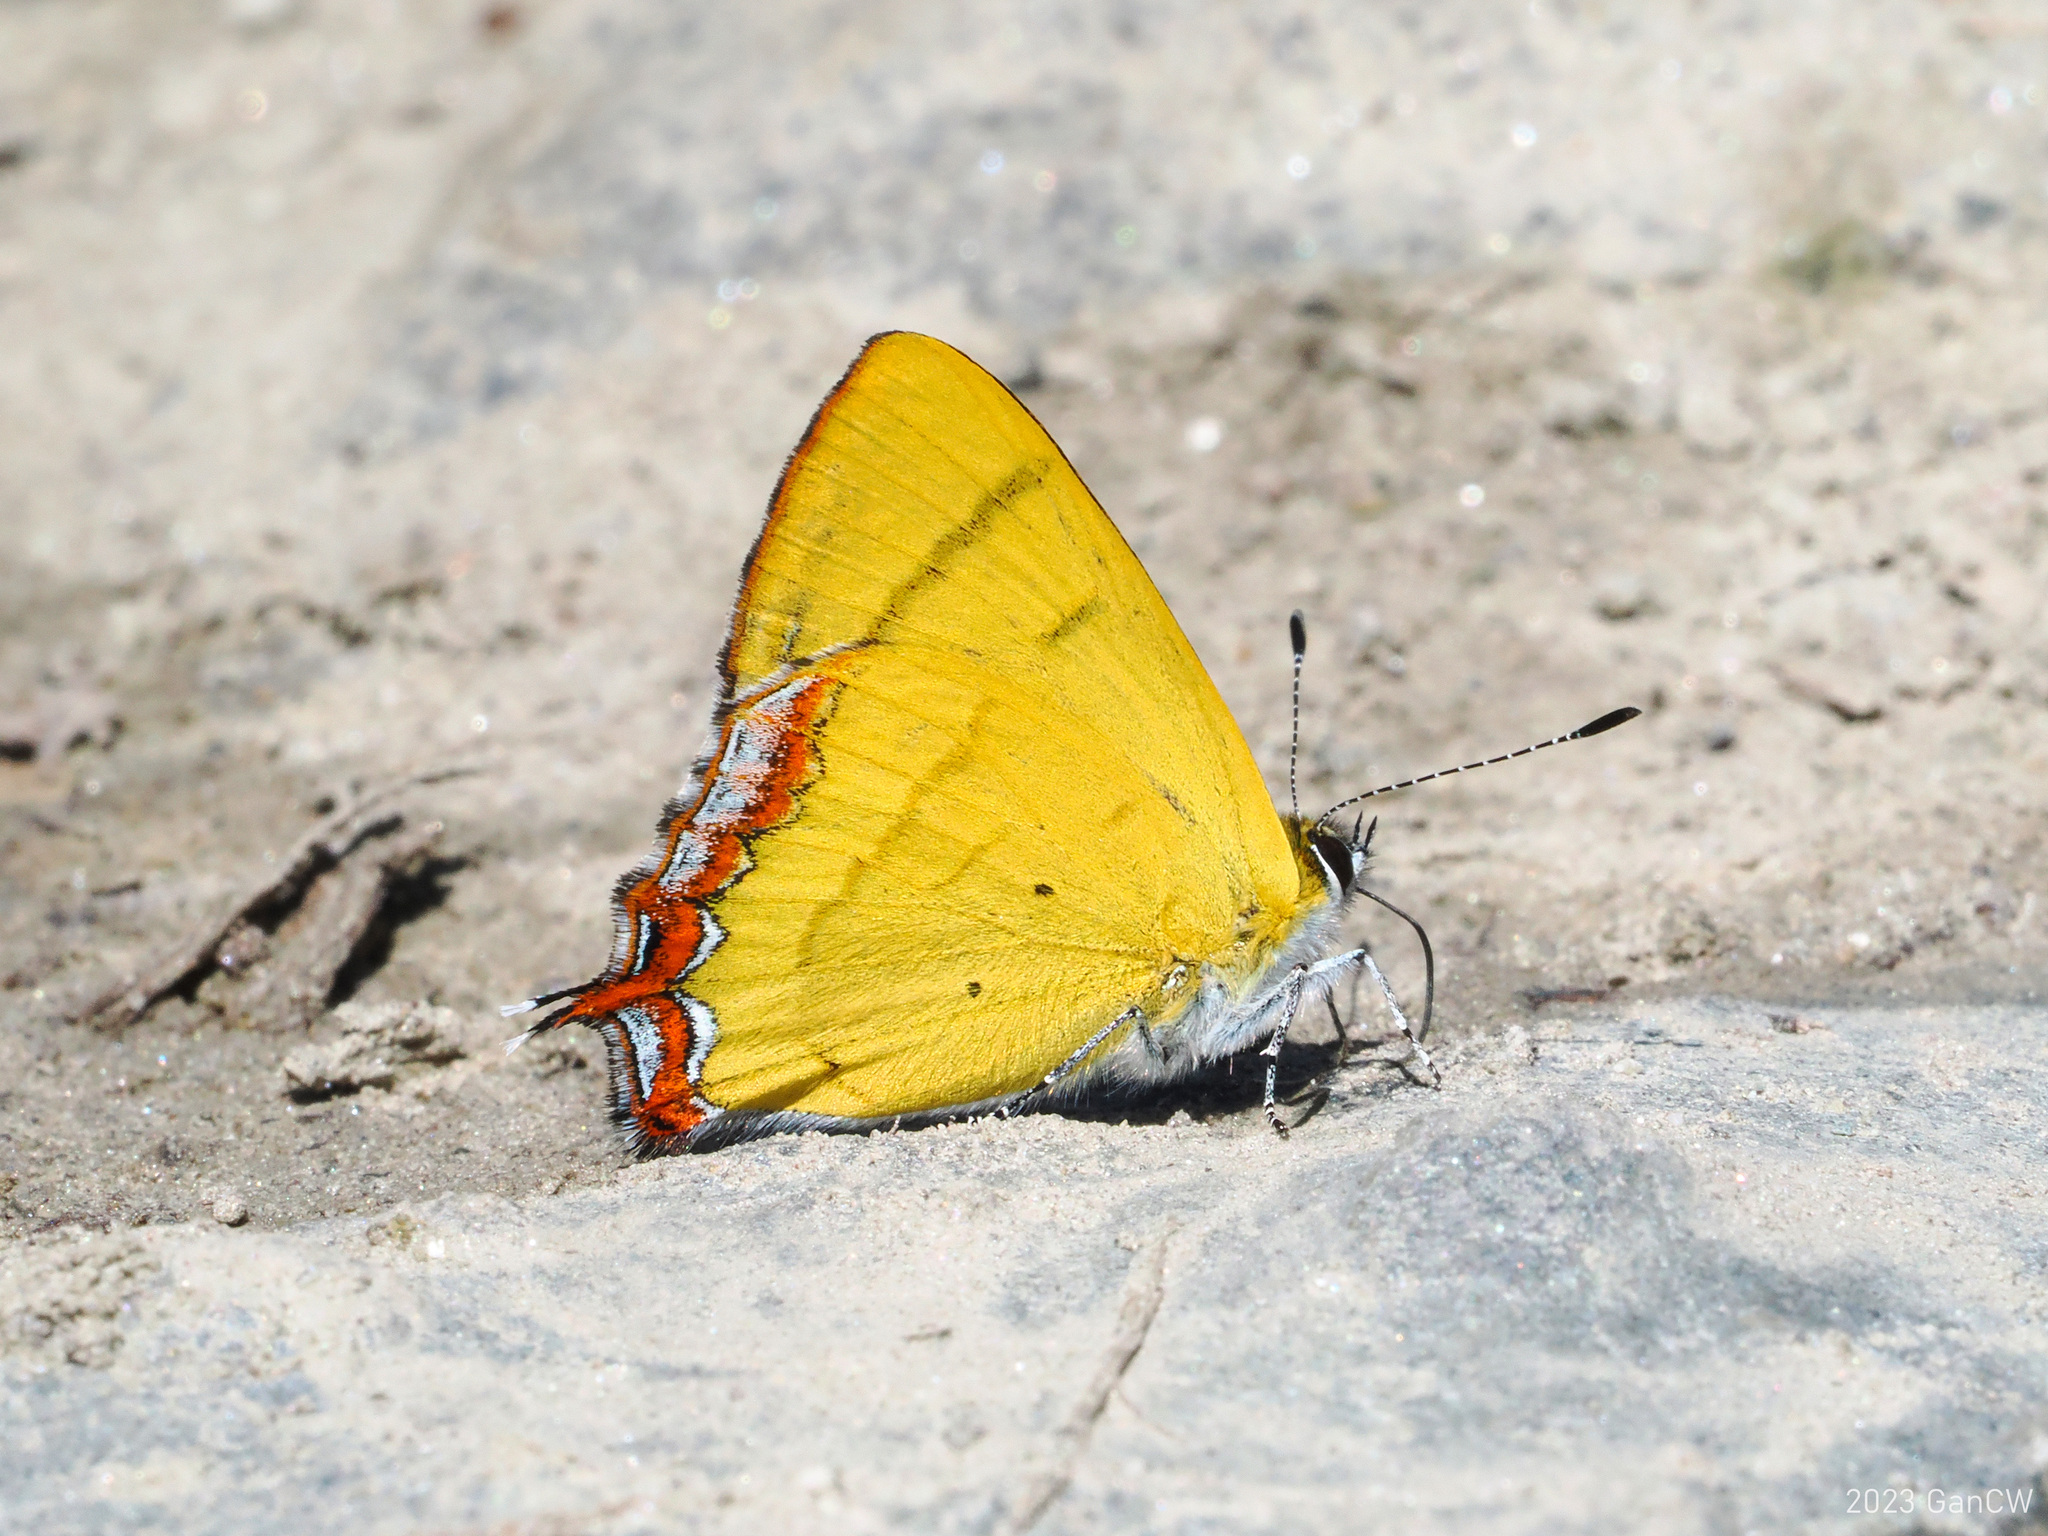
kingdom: Animalia
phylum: Arthropoda
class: Insecta
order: Lepidoptera
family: Lycaenidae
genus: Heliophorus
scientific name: Heliophorus tamu
